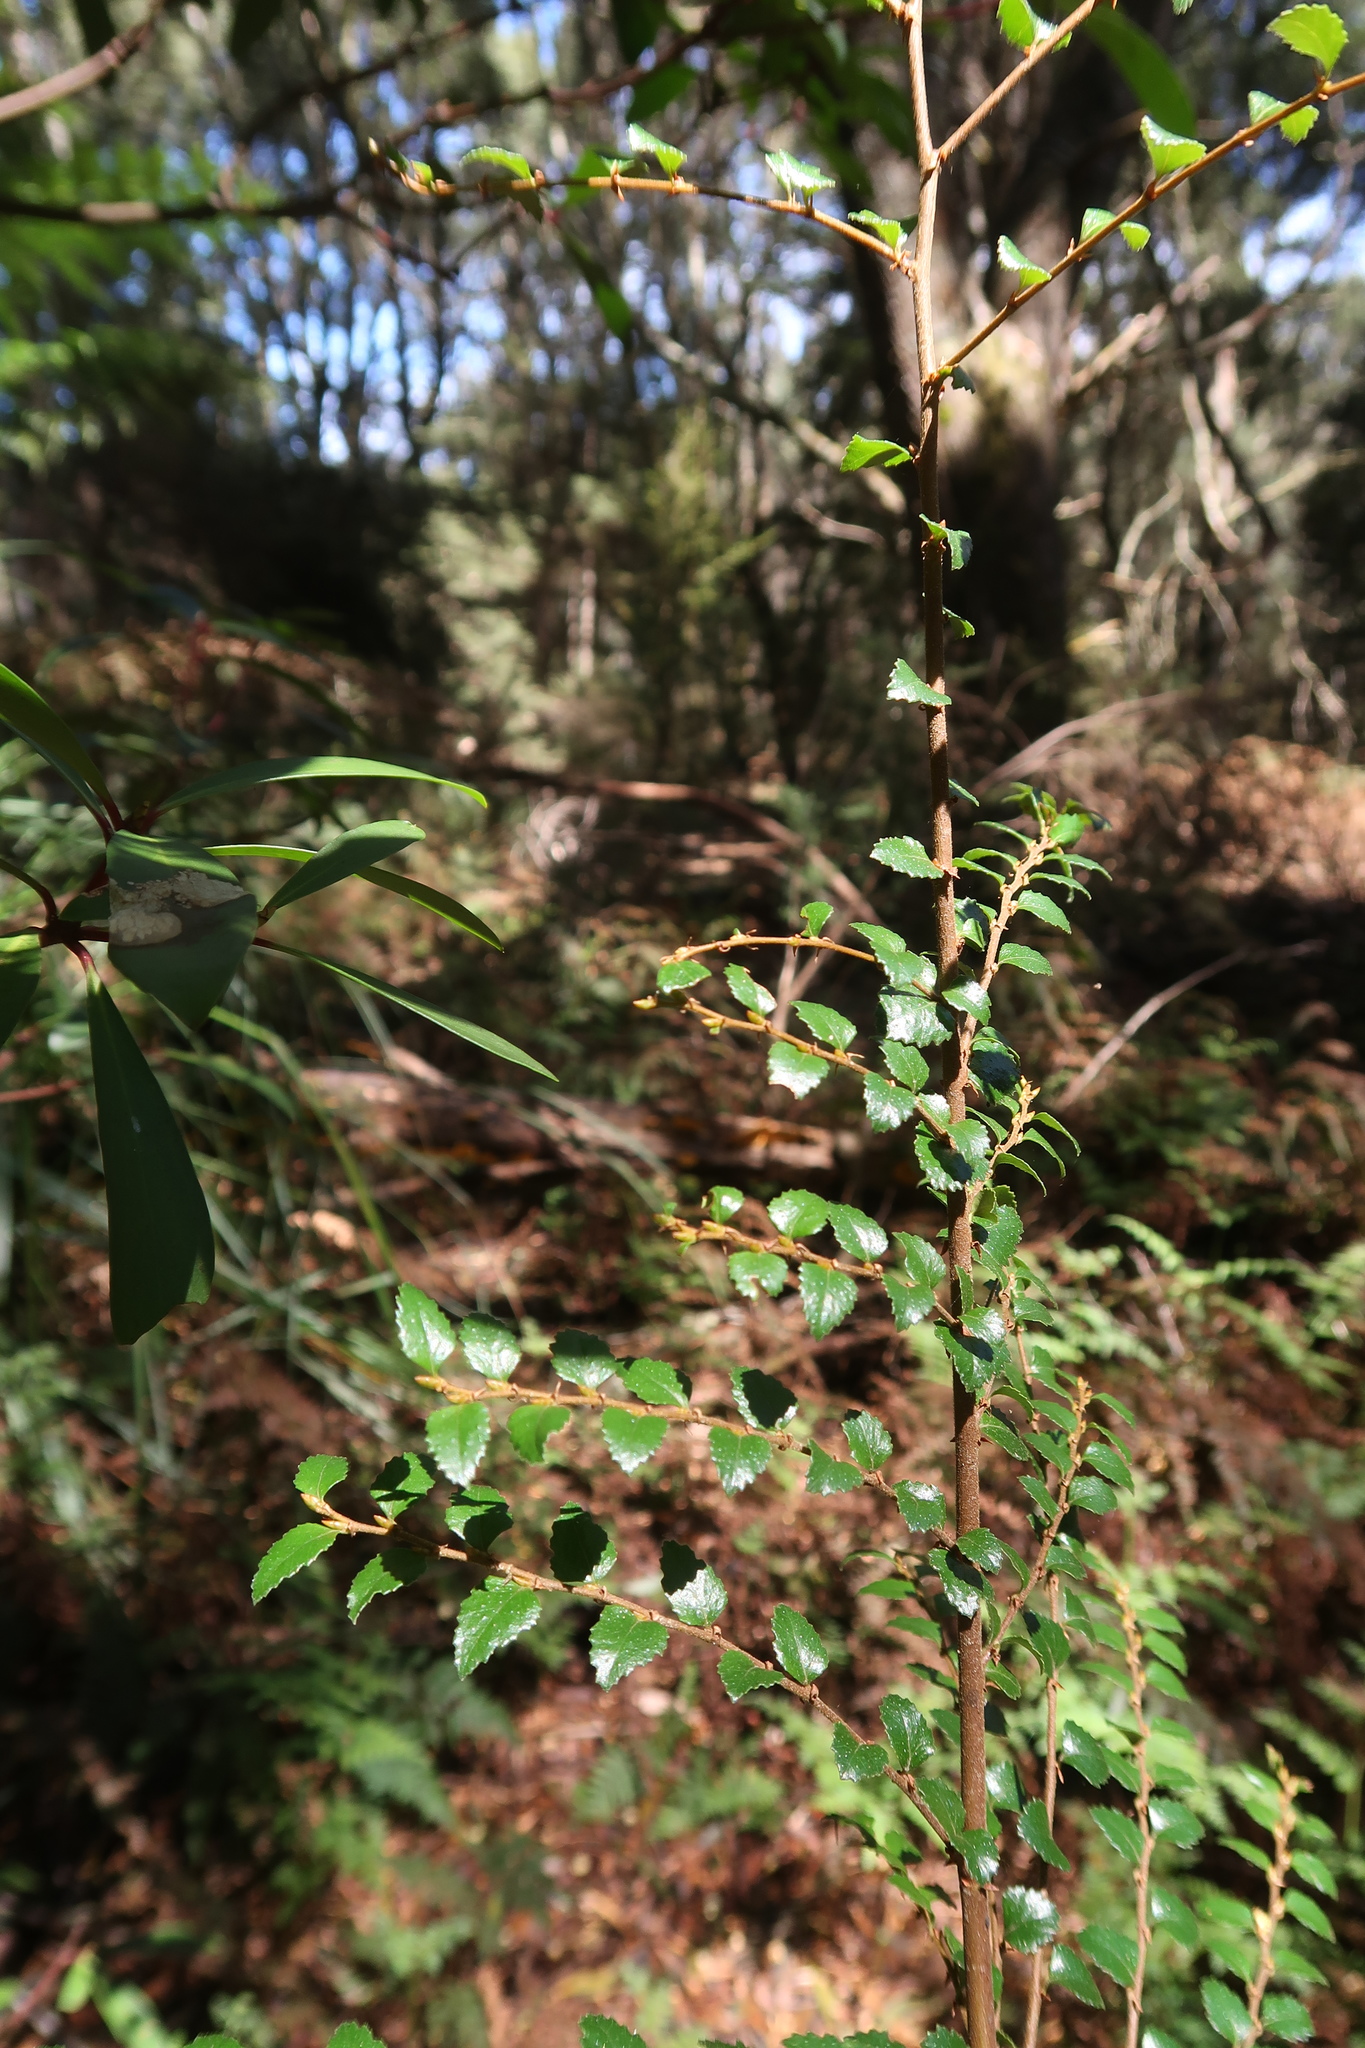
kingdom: Plantae
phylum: Tracheophyta
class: Magnoliopsida
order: Fagales
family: Nothofagaceae
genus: Nothofagus
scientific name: Nothofagus cunninghamii
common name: Myrtle beech
